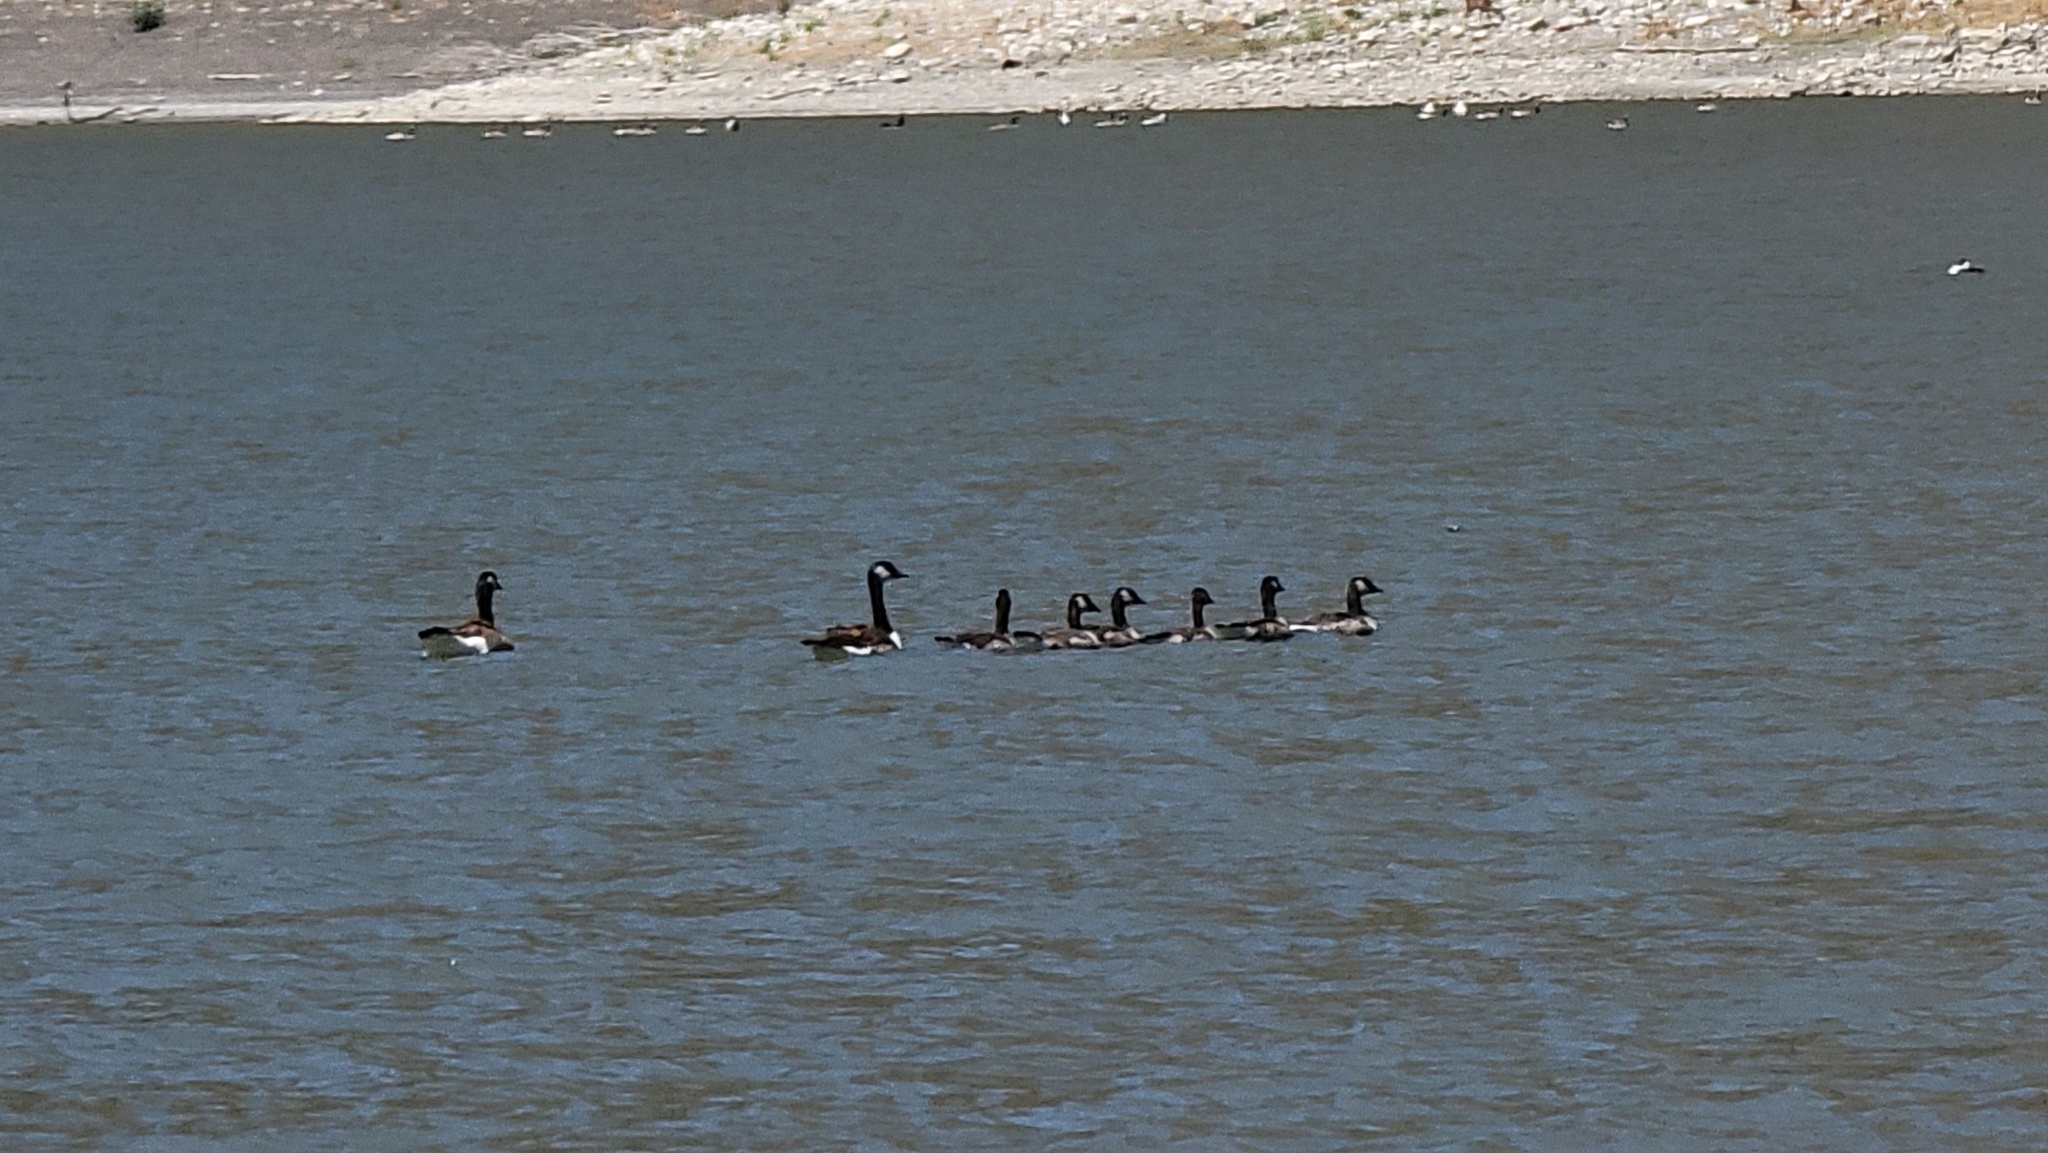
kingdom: Animalia
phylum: Chordata
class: Aves
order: Anseriformes
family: Anatidae
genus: Branta
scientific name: Branta canadensis
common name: Canada goose
